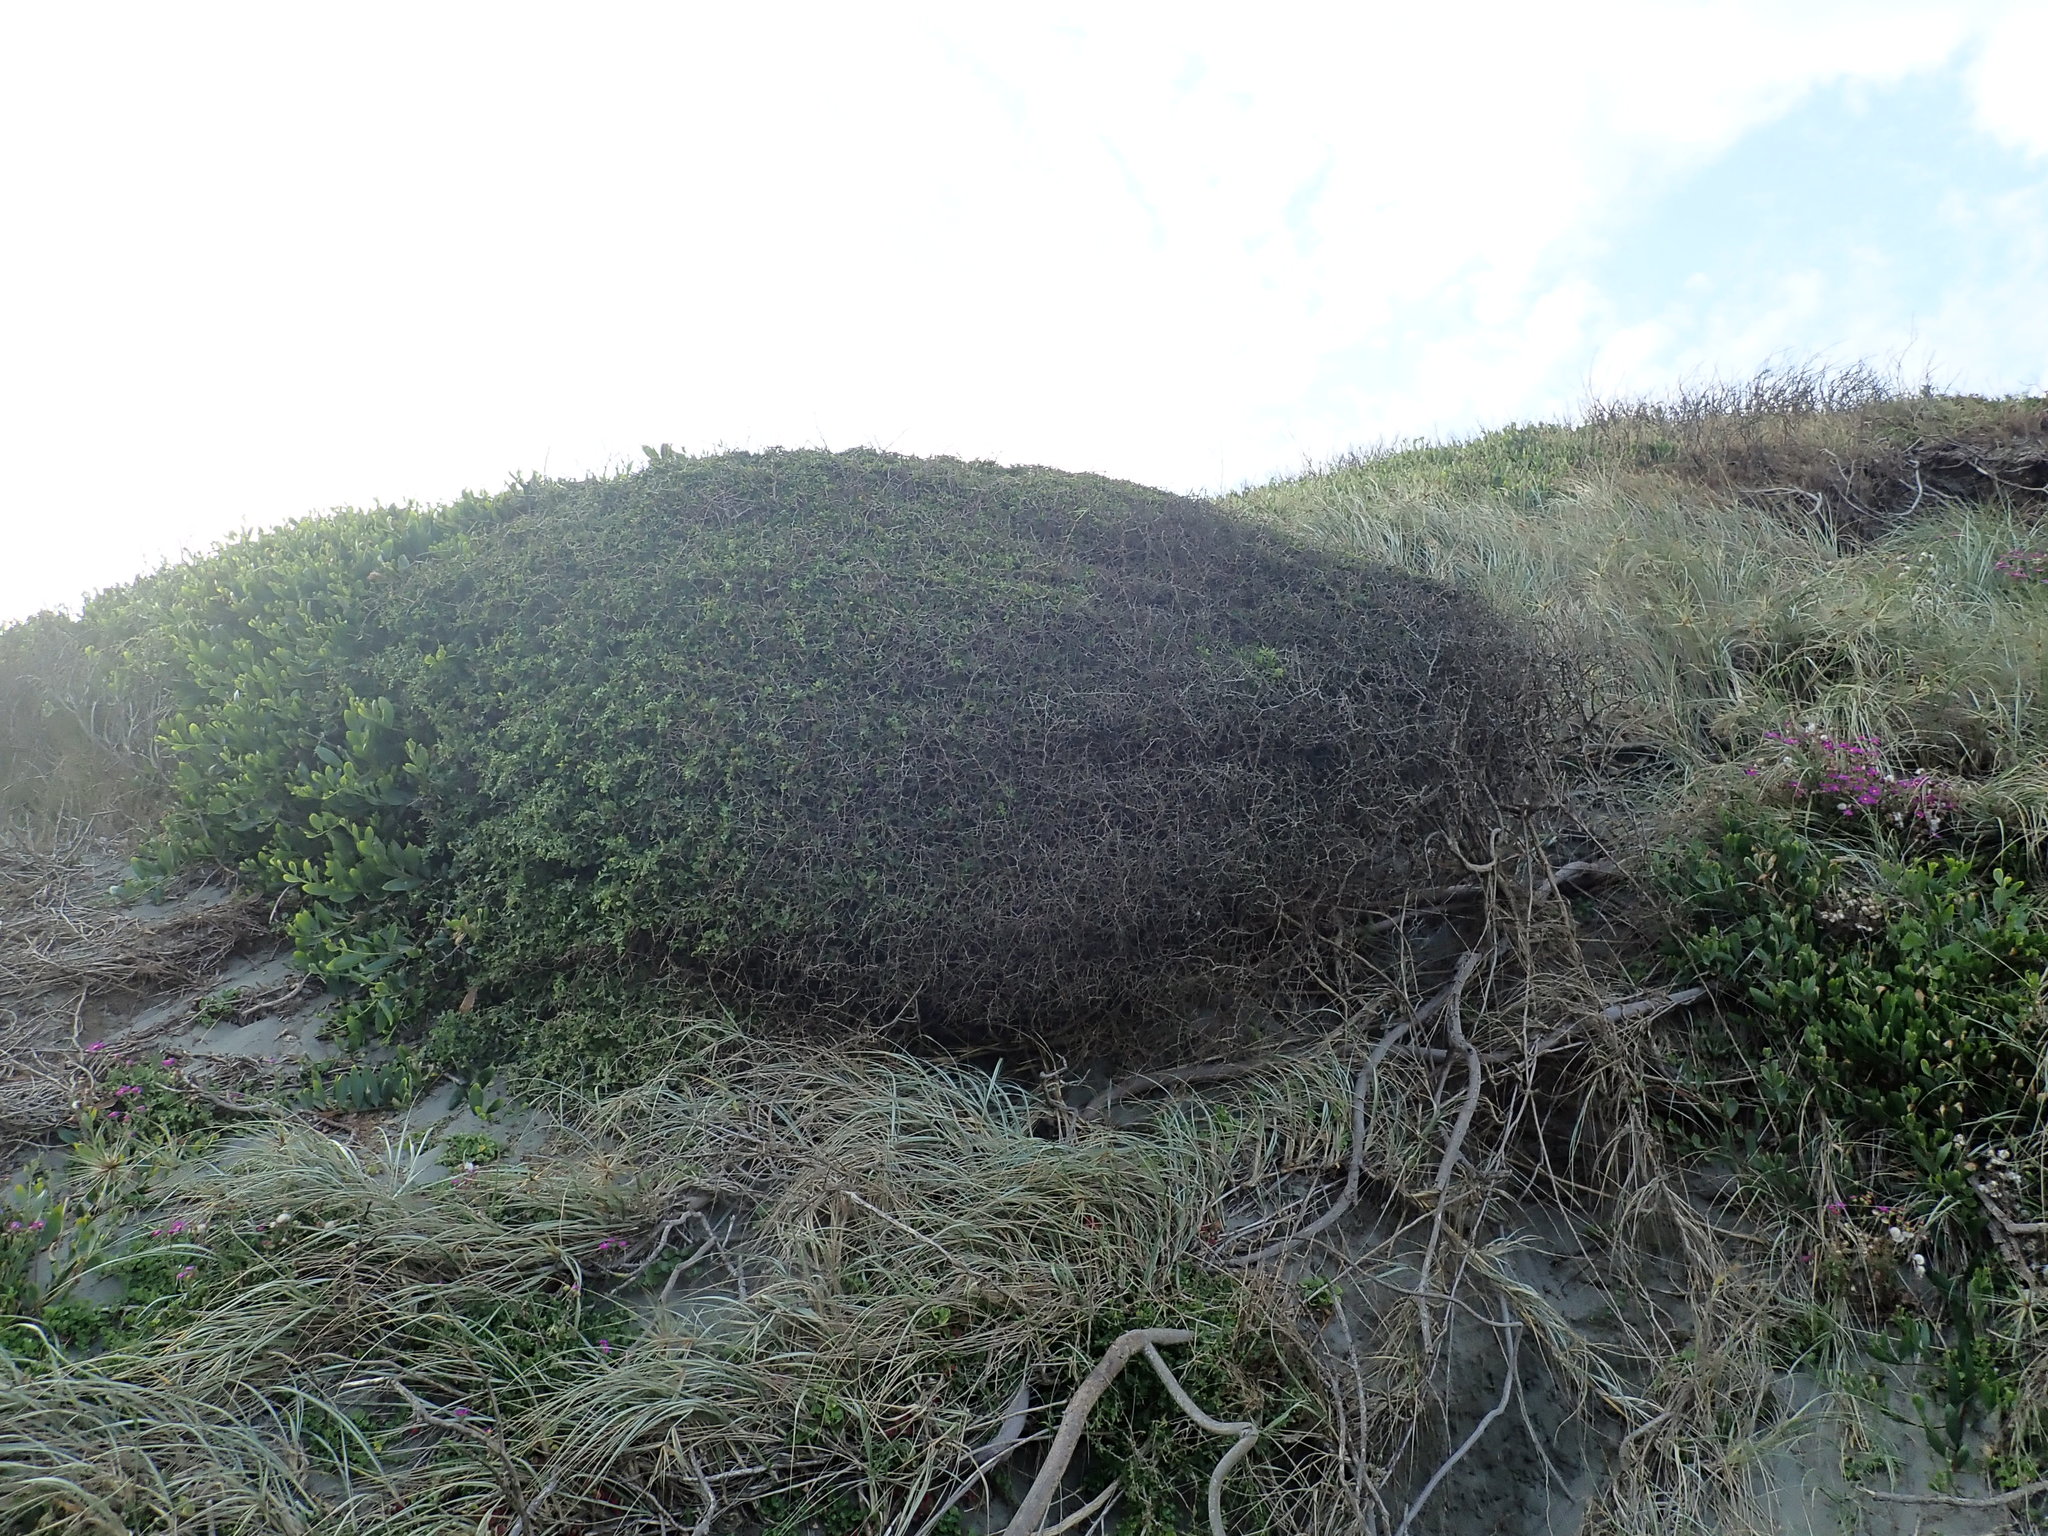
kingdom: Plantae
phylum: Tracheophyta
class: Magnoliopsida
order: Solanales
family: Solanaceae
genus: Lycium
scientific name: Lycium ferocissimum
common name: African boxthorn
